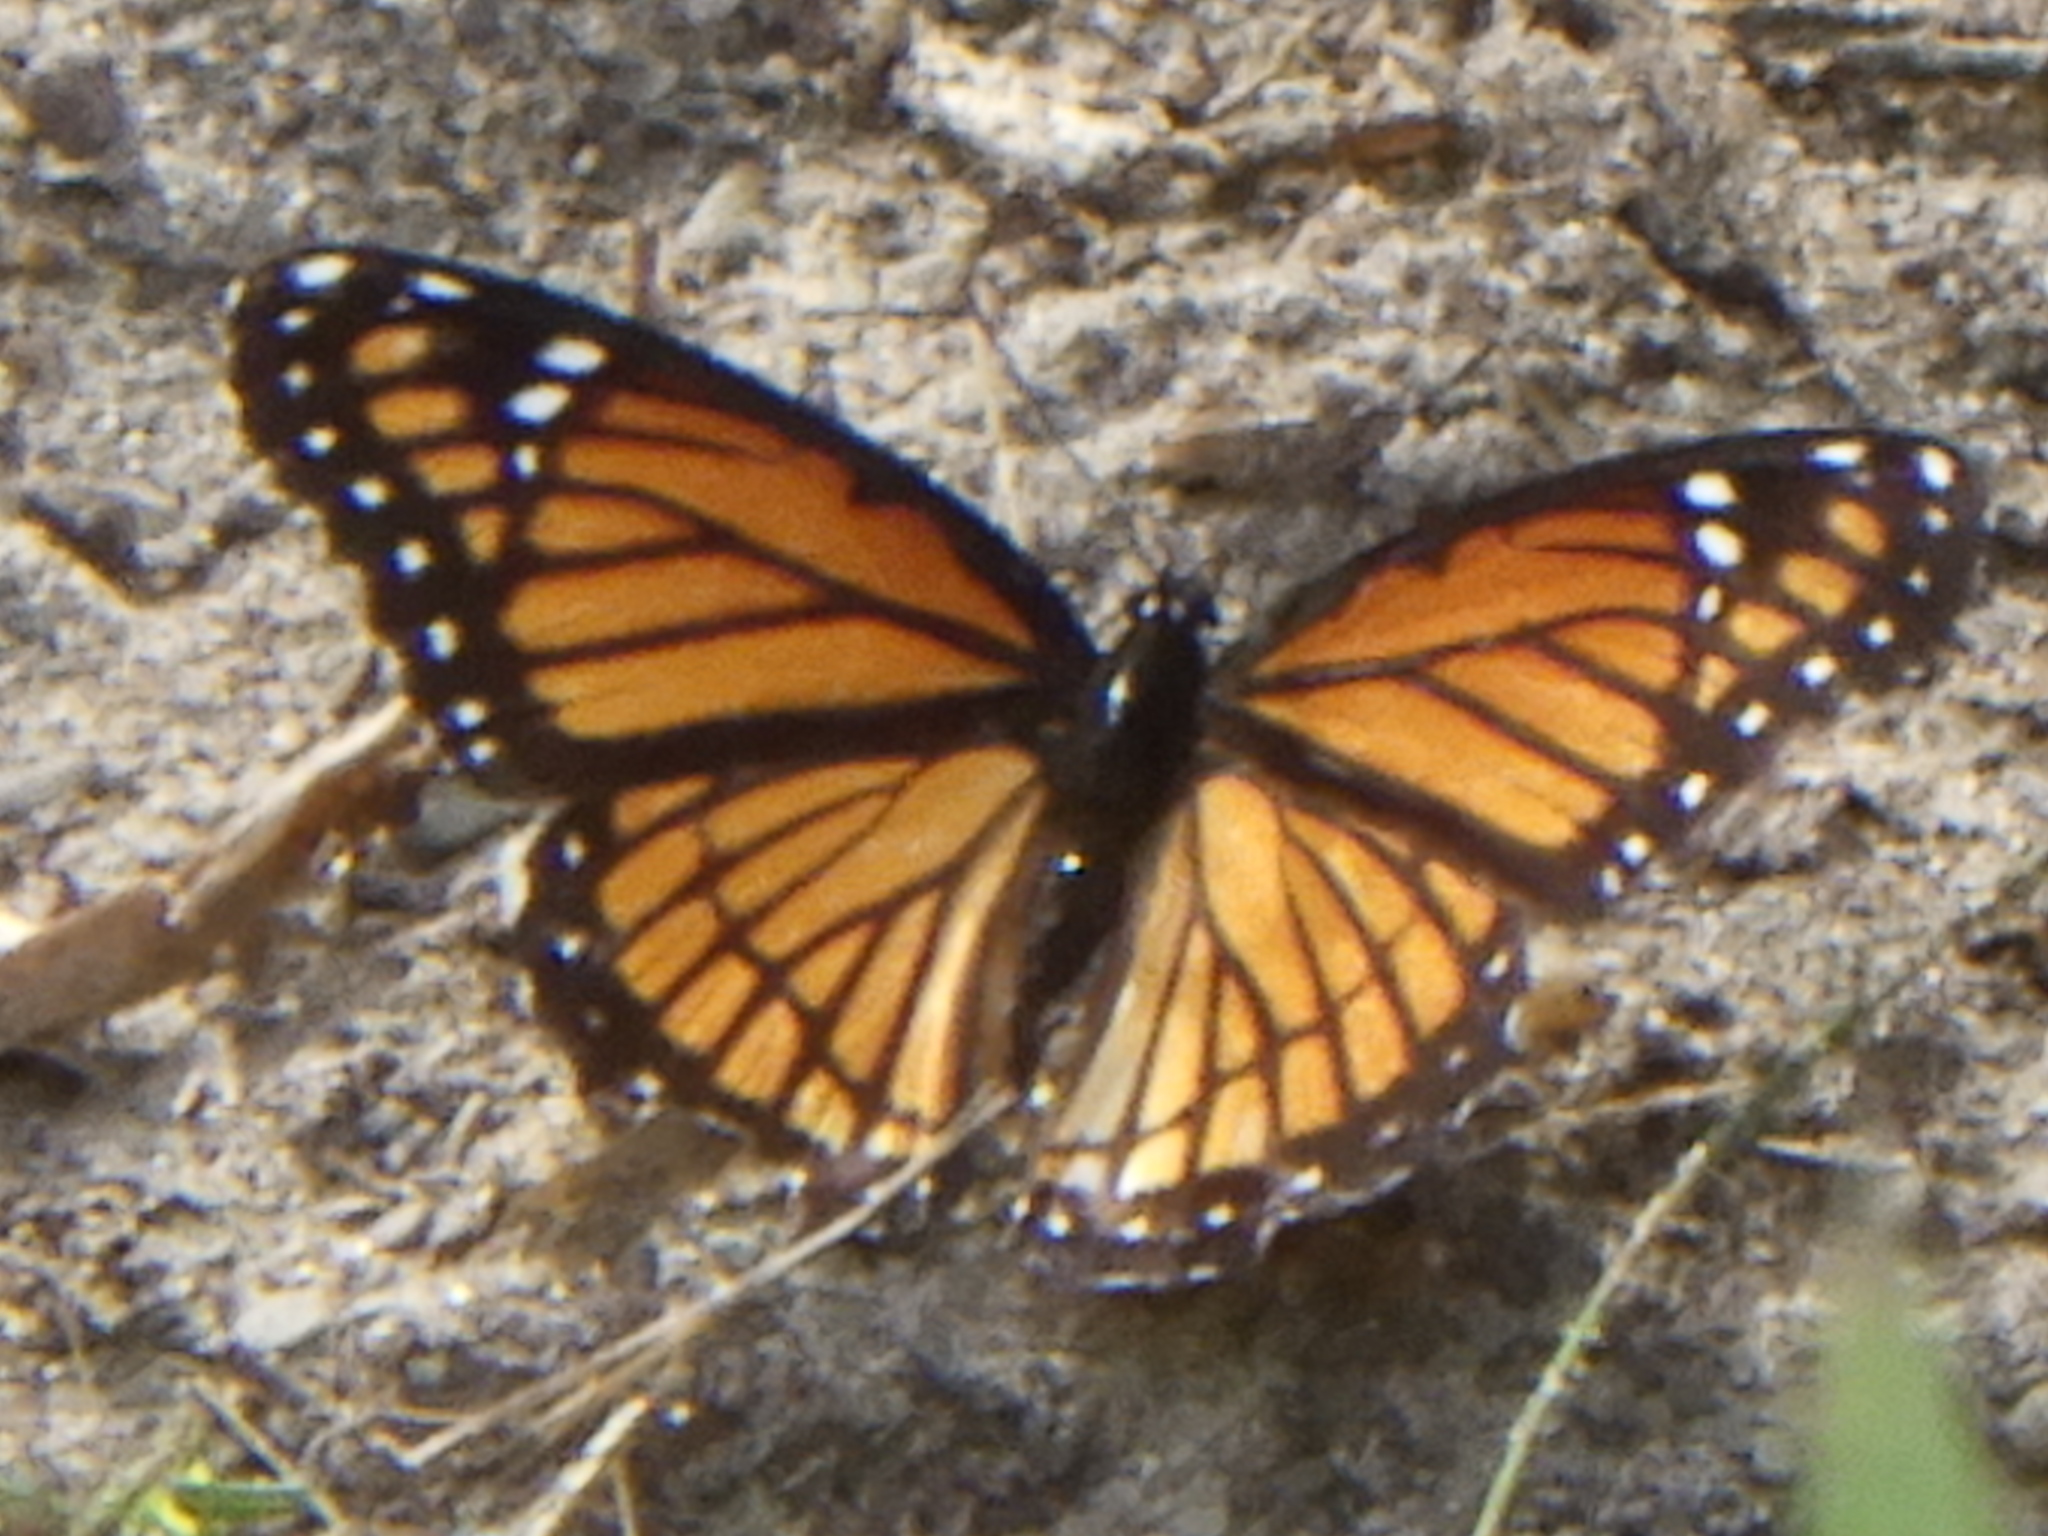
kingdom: Animalia
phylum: Arthropoda
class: Insecta
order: Lepidoptera
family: Nymphalidae
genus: Limenitis
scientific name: Limenitis archippus
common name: Viceroy
